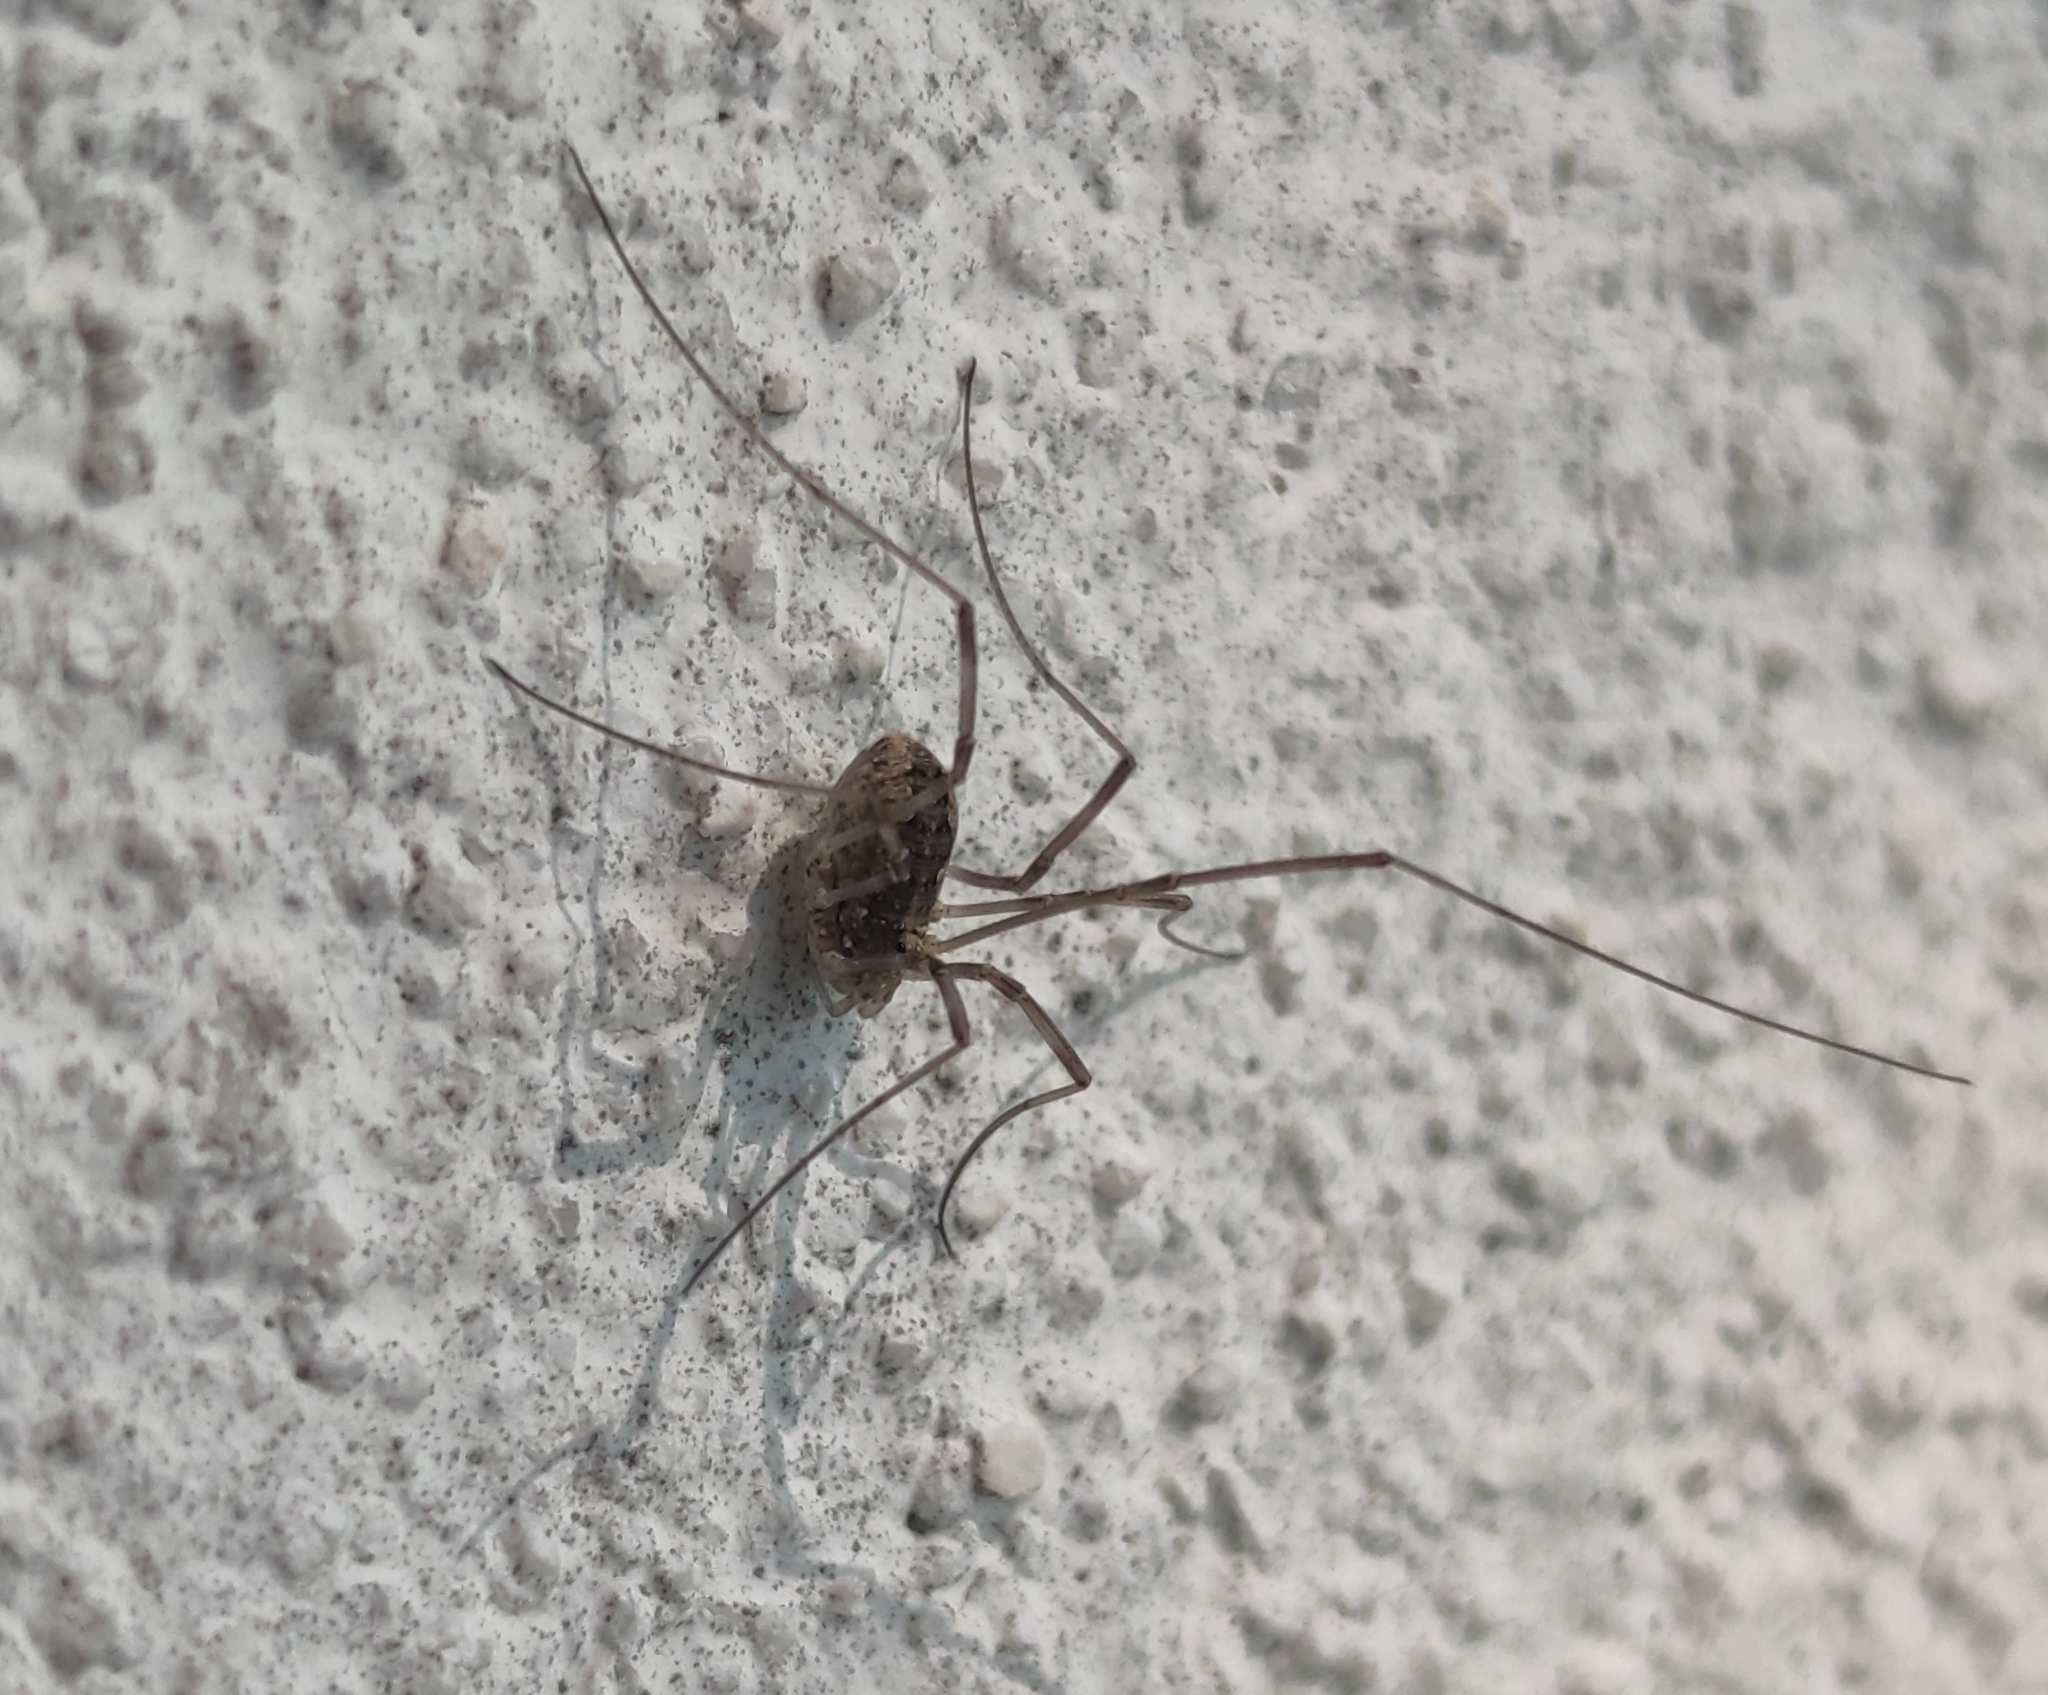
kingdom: Animalia
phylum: Arthropoda
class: Arachnida
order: Opiliones
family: Phalangiidae
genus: Phalangium
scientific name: Phalangium opilio
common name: Daddy longleg
